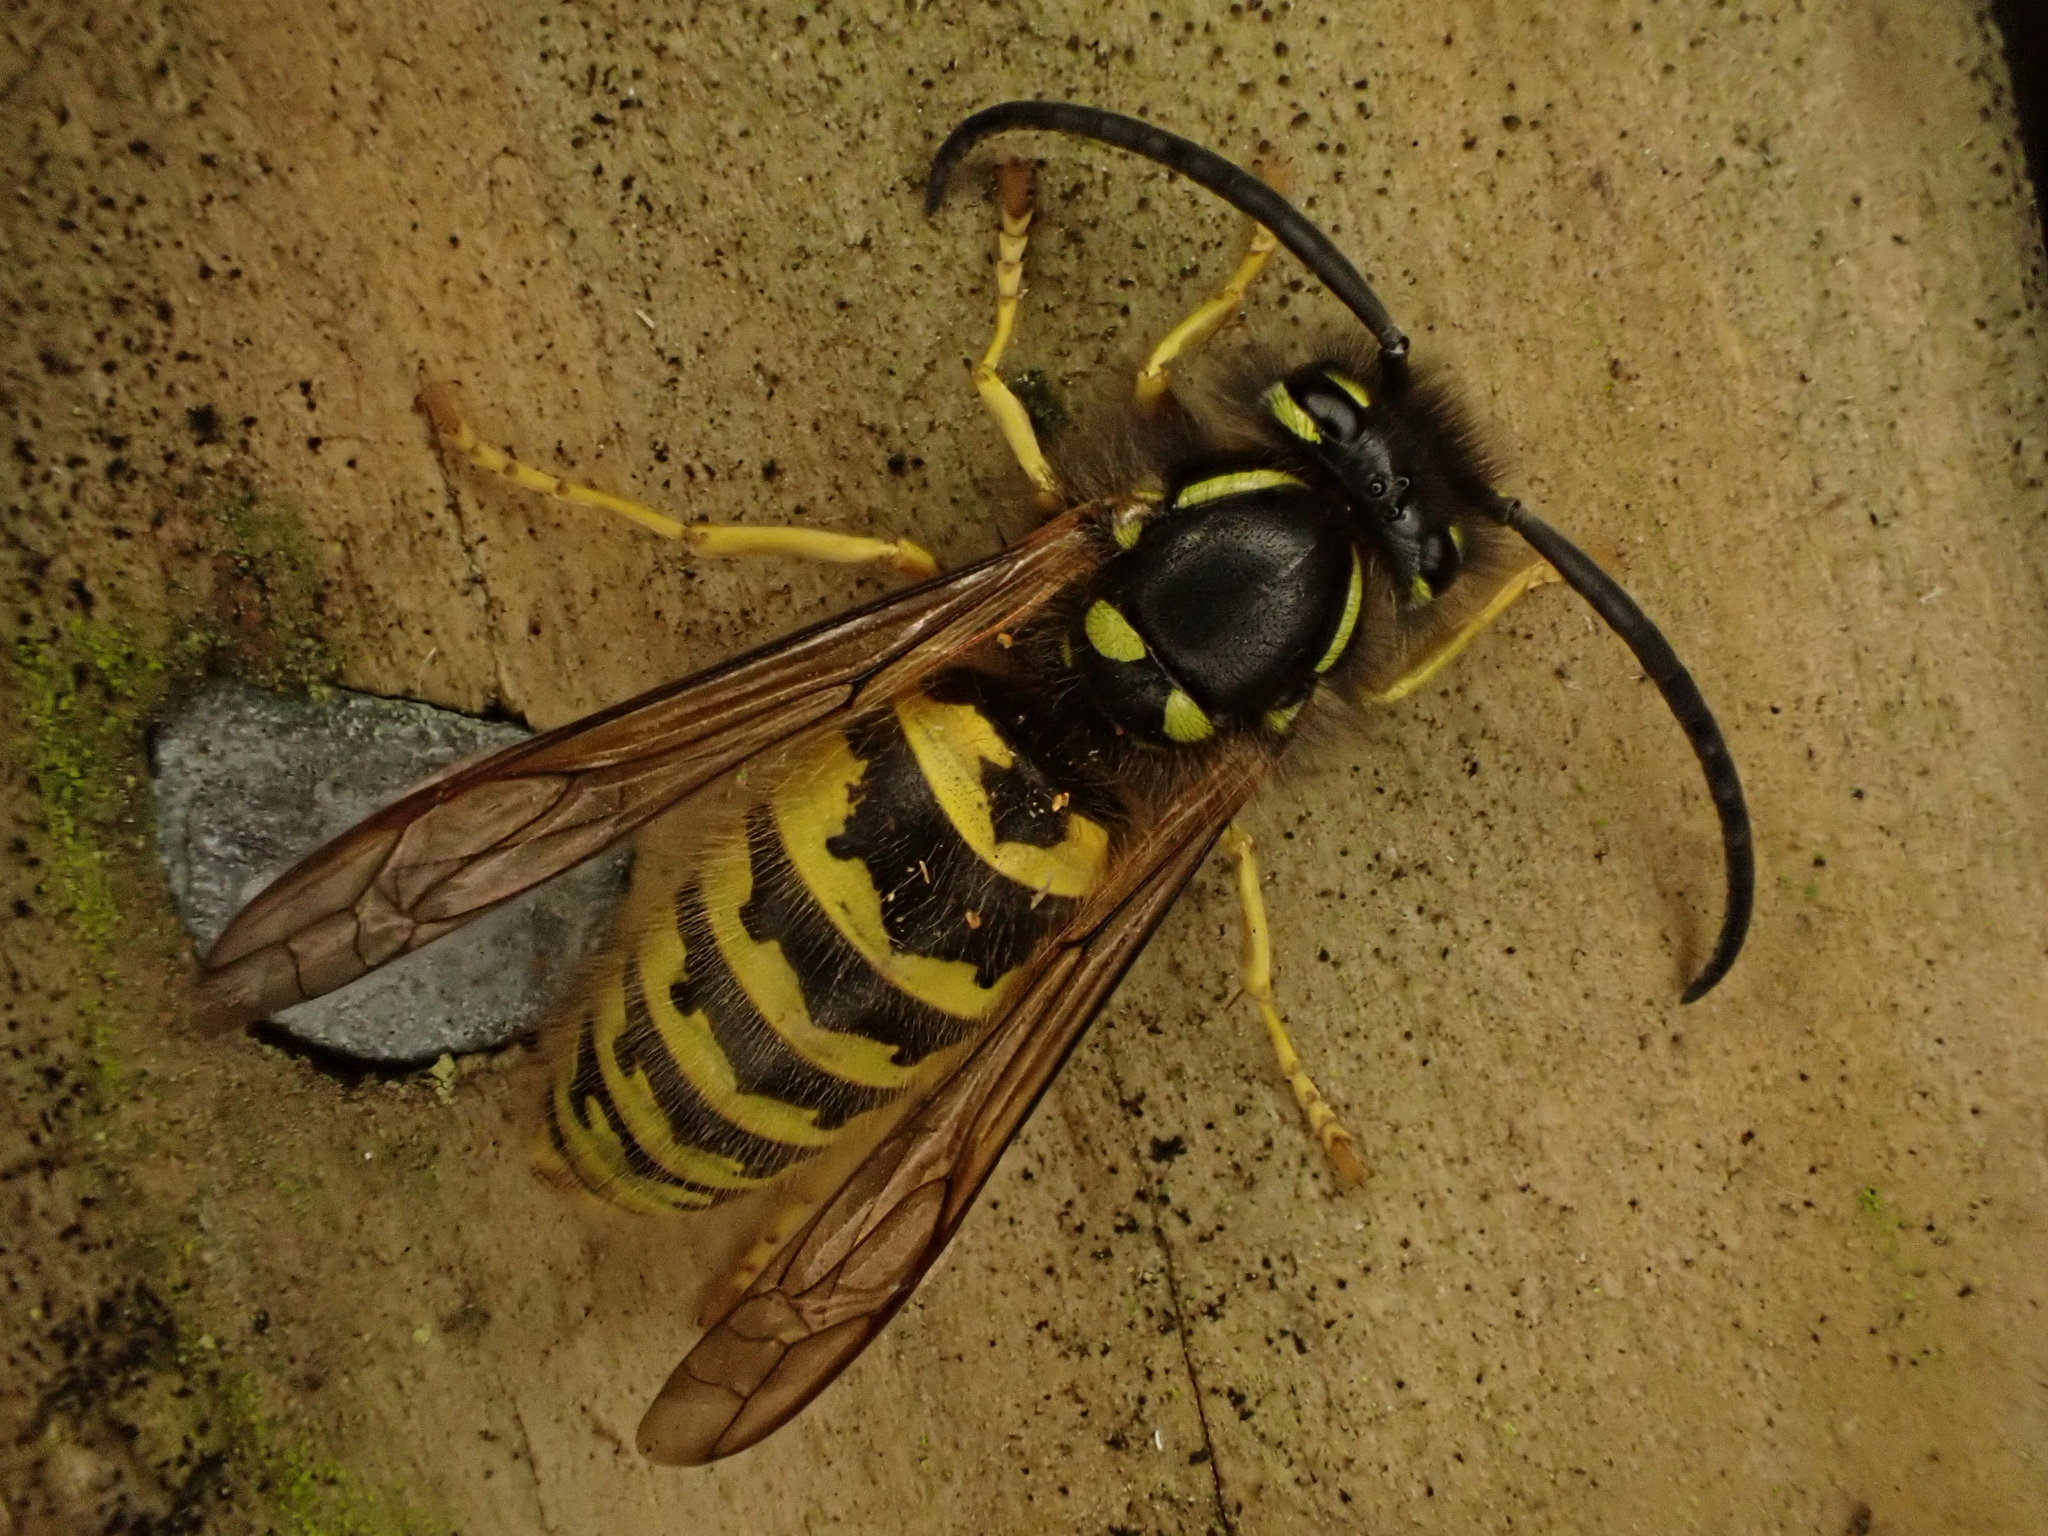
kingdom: Animalia
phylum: Arthropoda
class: Insecta
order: Hymenoptera
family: Vespidae
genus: Vespula
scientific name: Vespula
